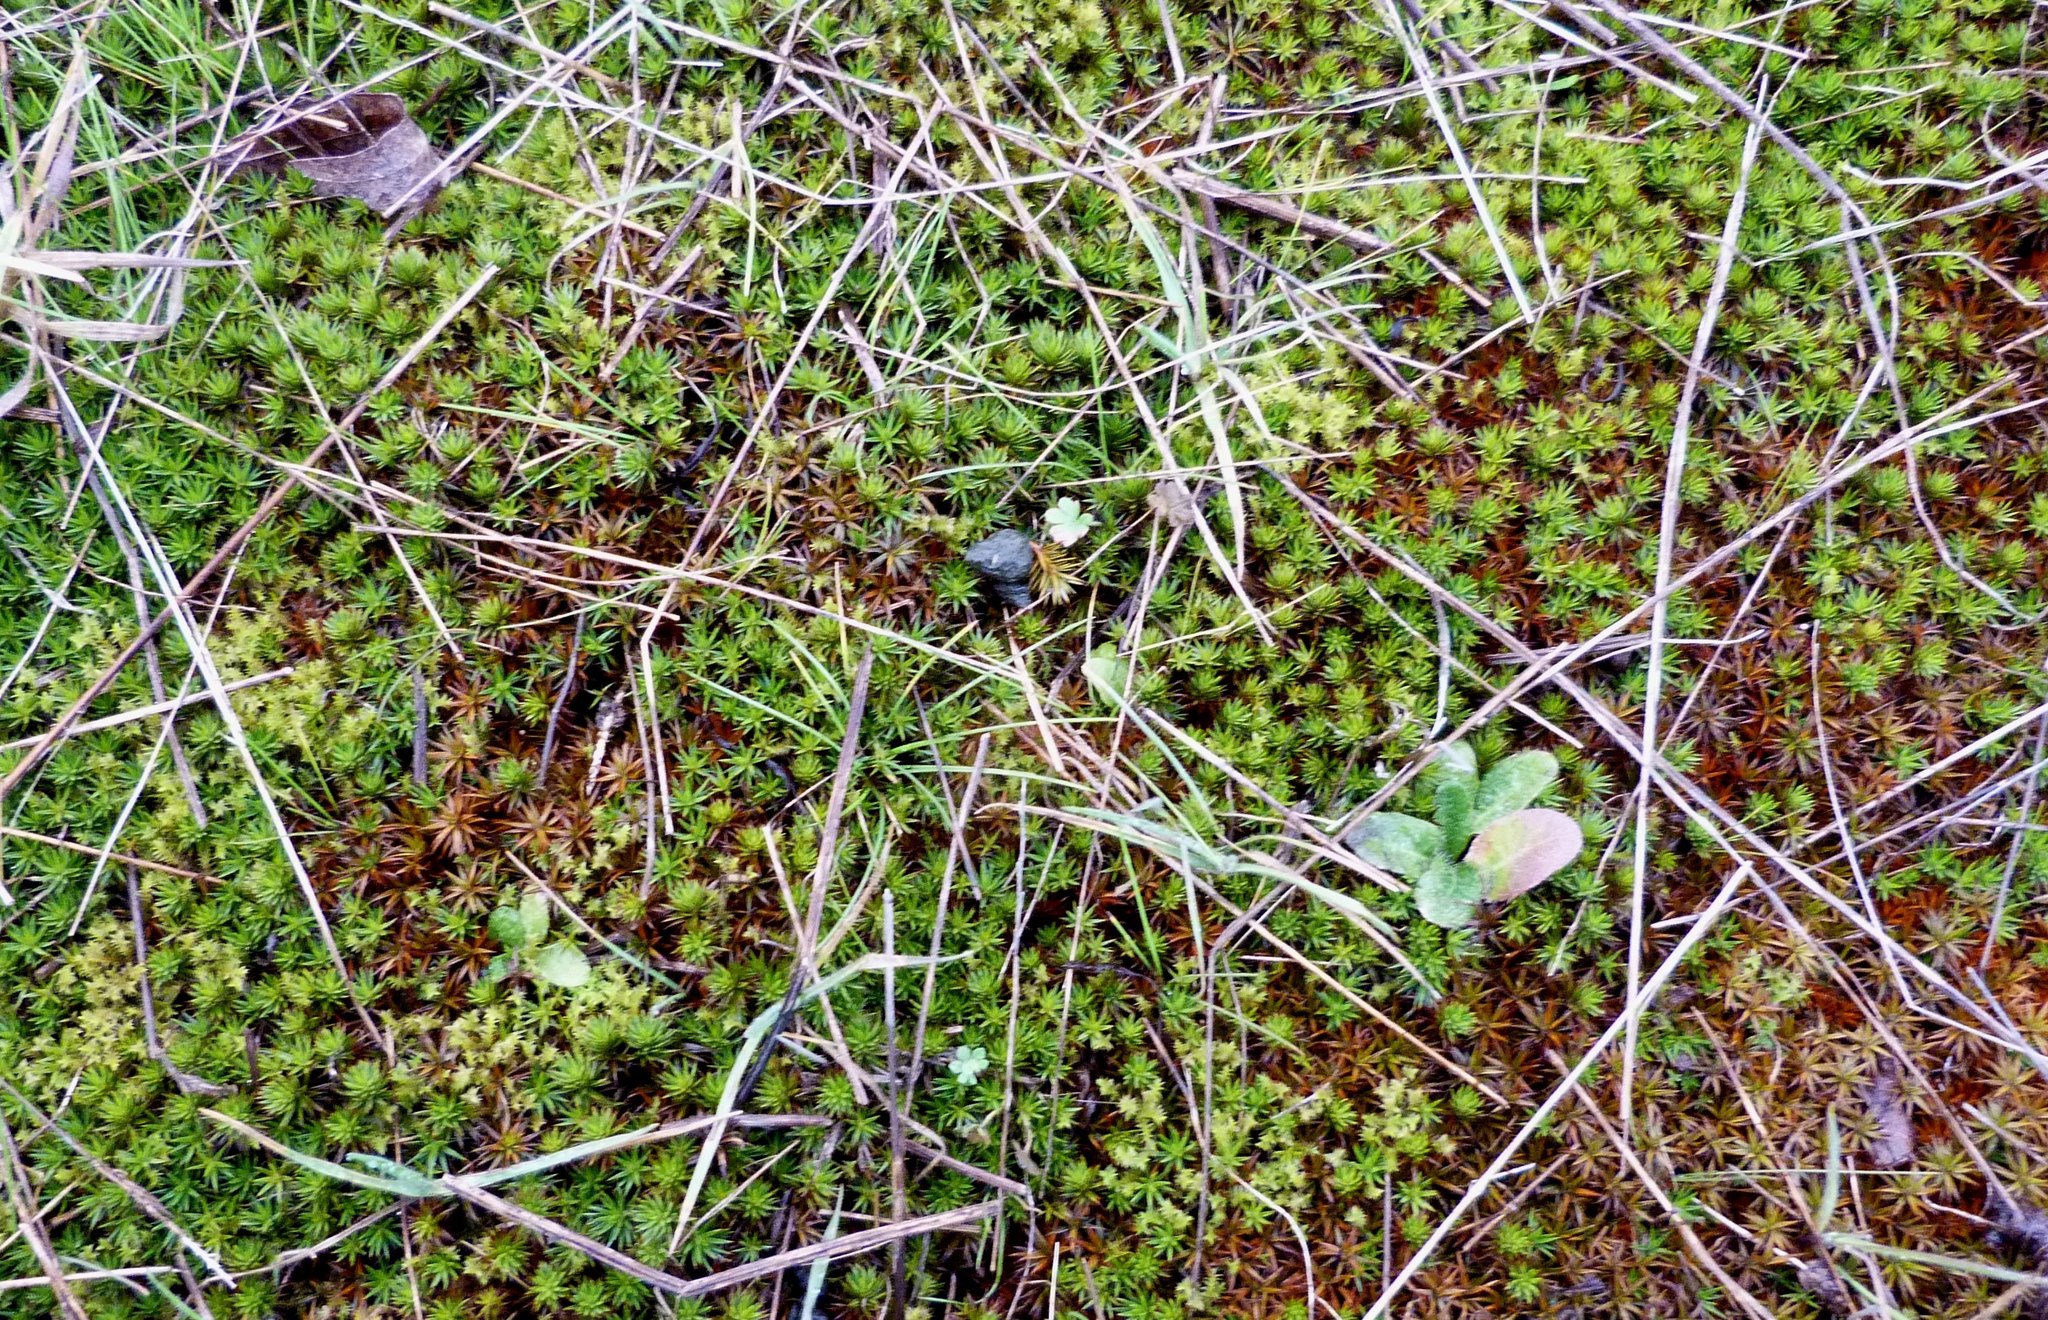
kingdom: Plantae
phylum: Bryophyta
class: Polytrichopsida
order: Polytrichales
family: Polytrichaceae
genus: Polytrichum
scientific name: Polytrichum juniperinum
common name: Juniper haircap moss
